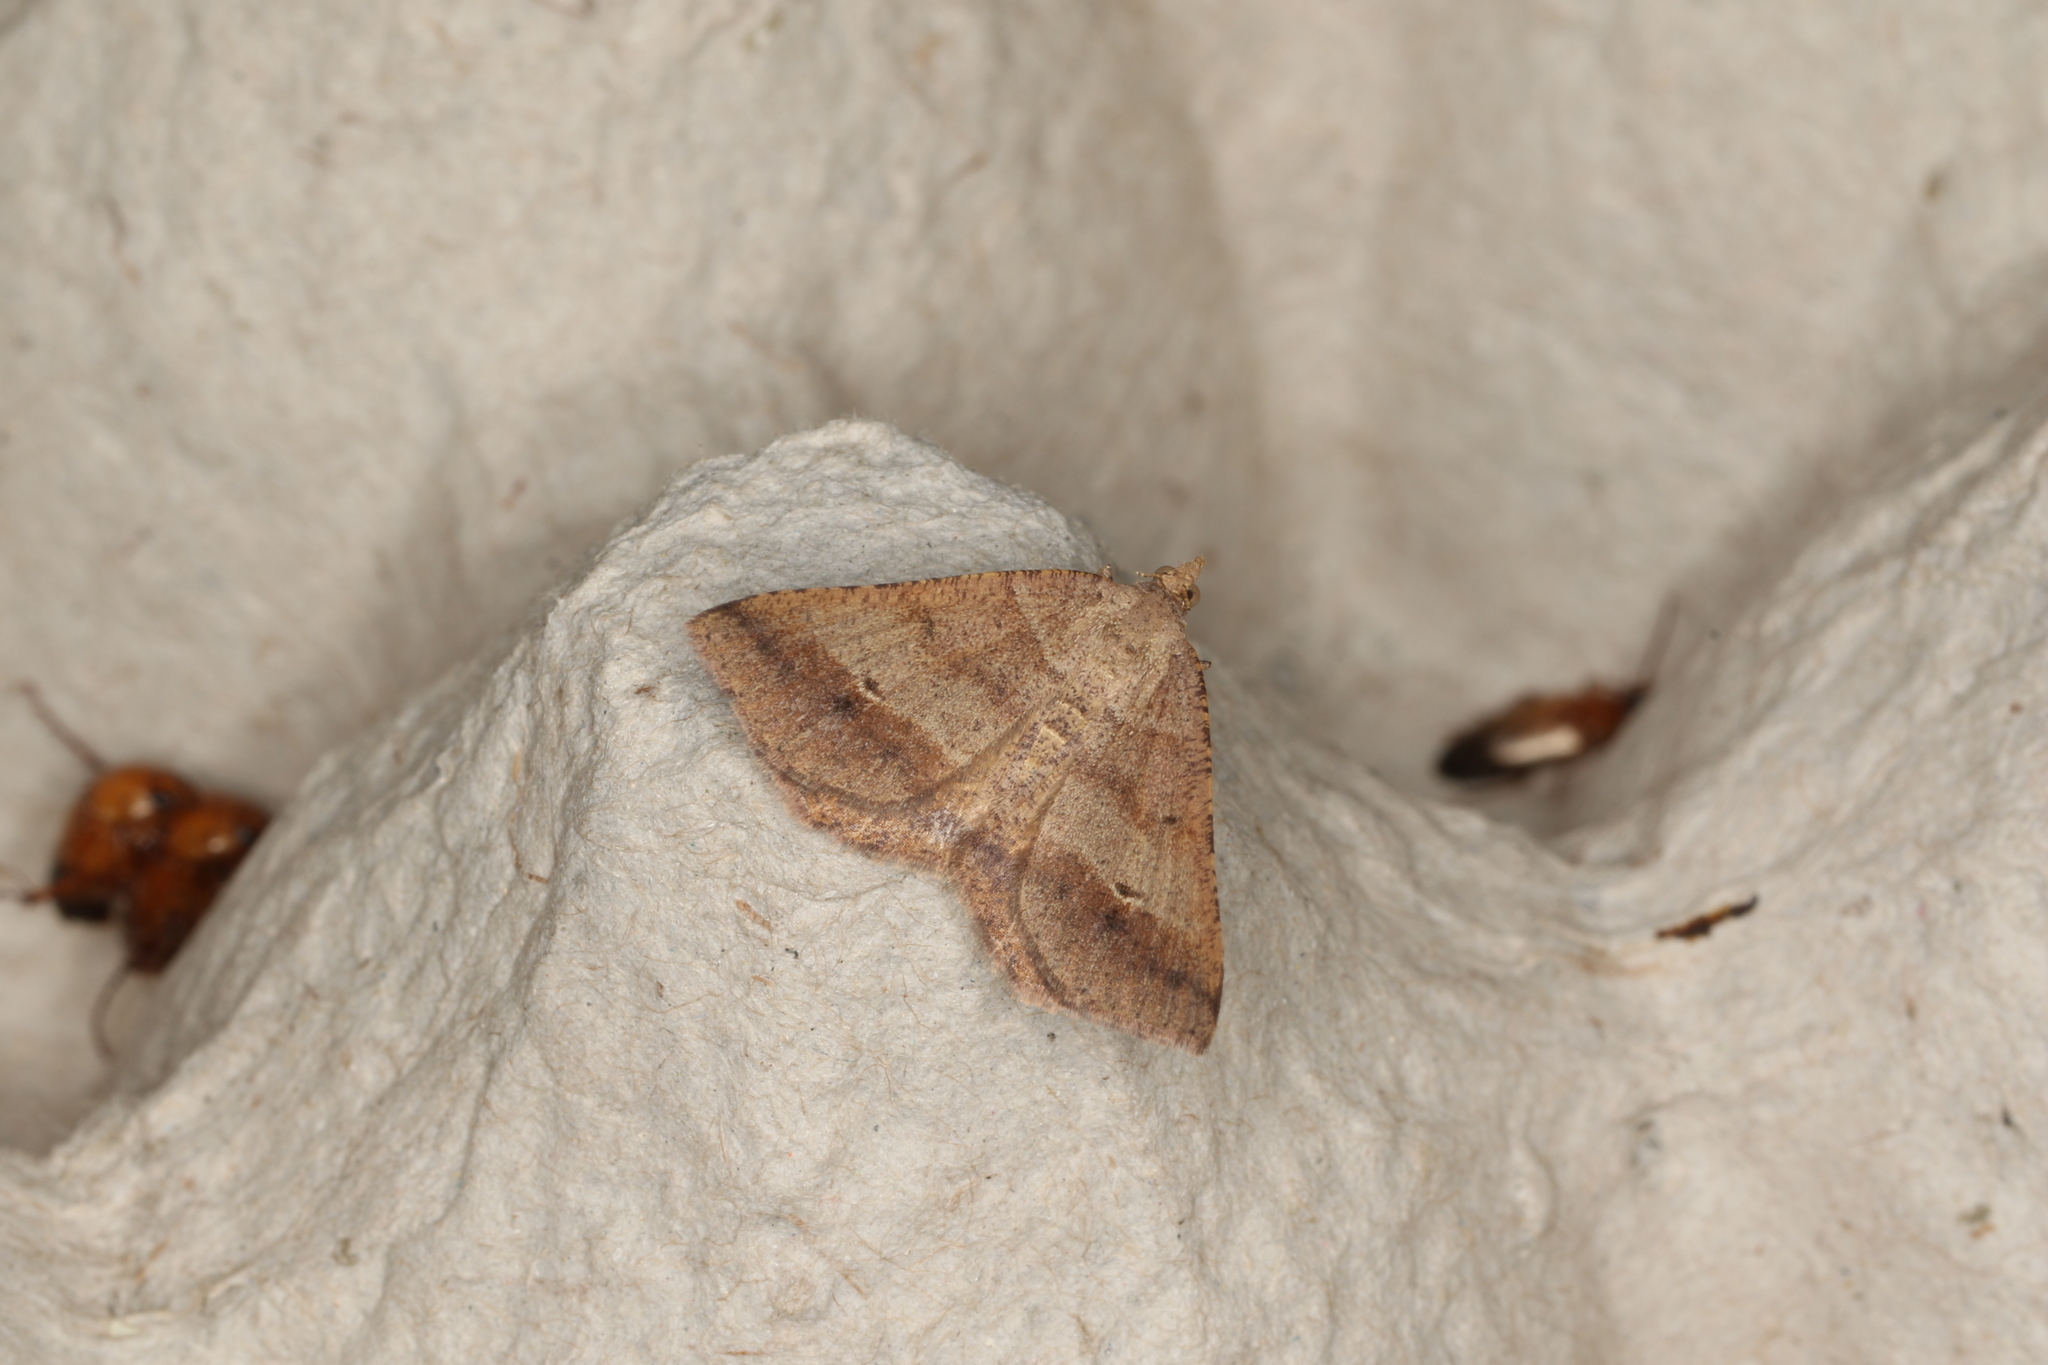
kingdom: Animalia
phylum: Arthropoda
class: Insecta
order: Lepidoptera
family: Geometridae
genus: Parosteodes
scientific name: Parosteodes fictiliaria
